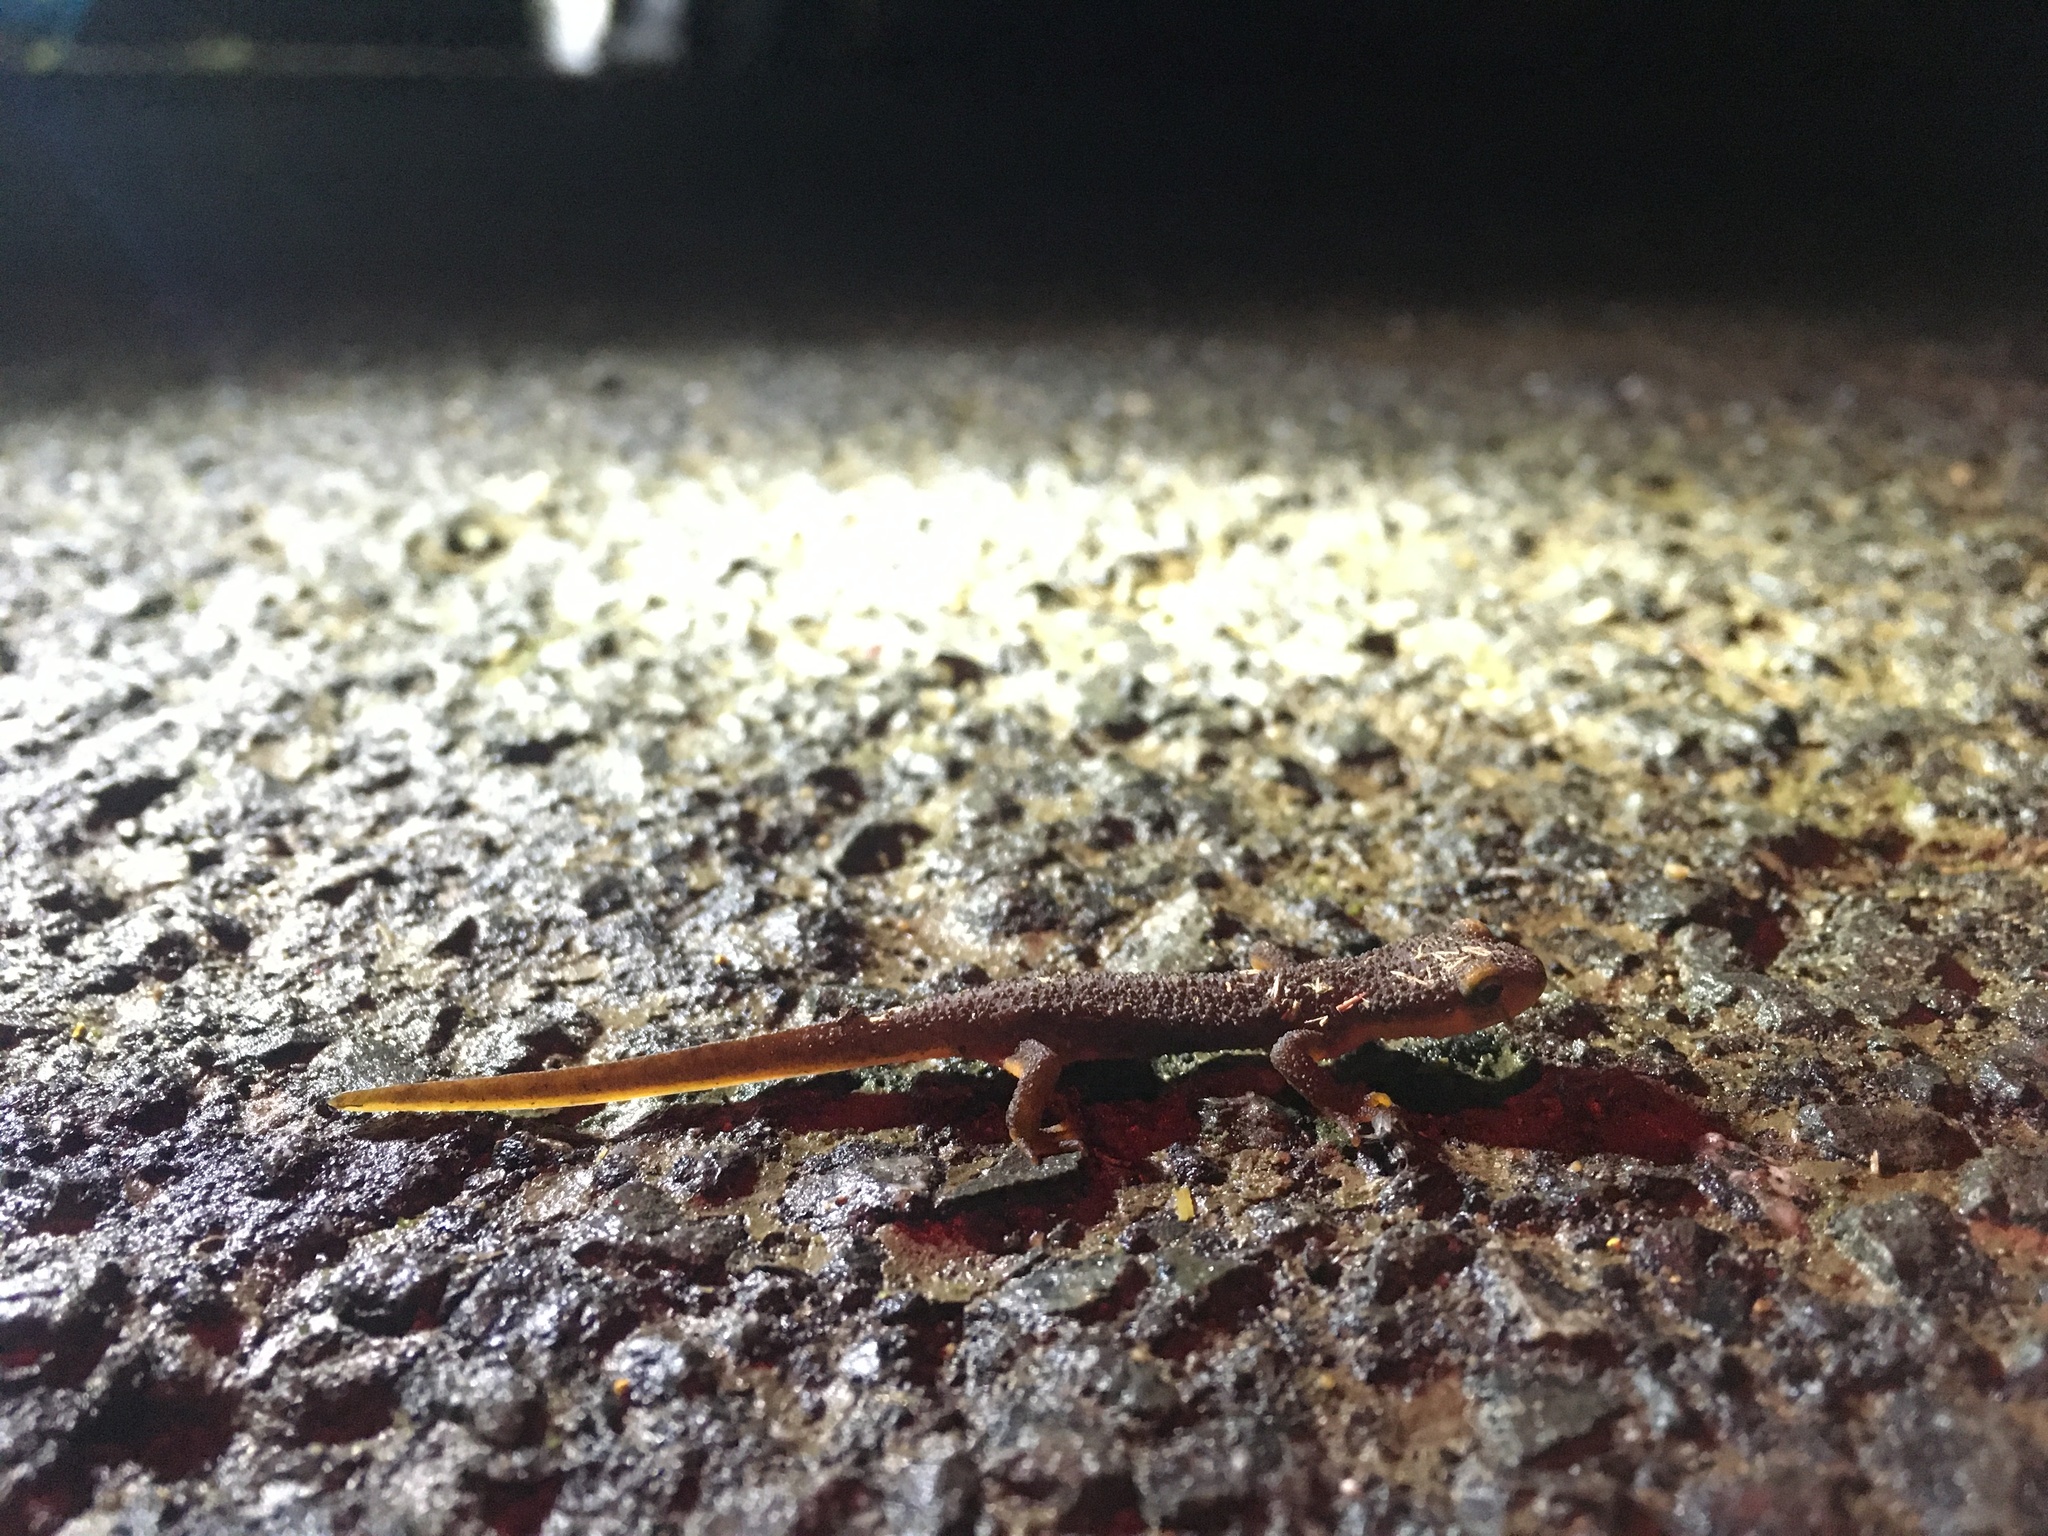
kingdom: Animalia
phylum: Chordata
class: Amphibia
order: Caudata
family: Salamandridae
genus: Taricha
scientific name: Taricha torosa
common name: California newt
